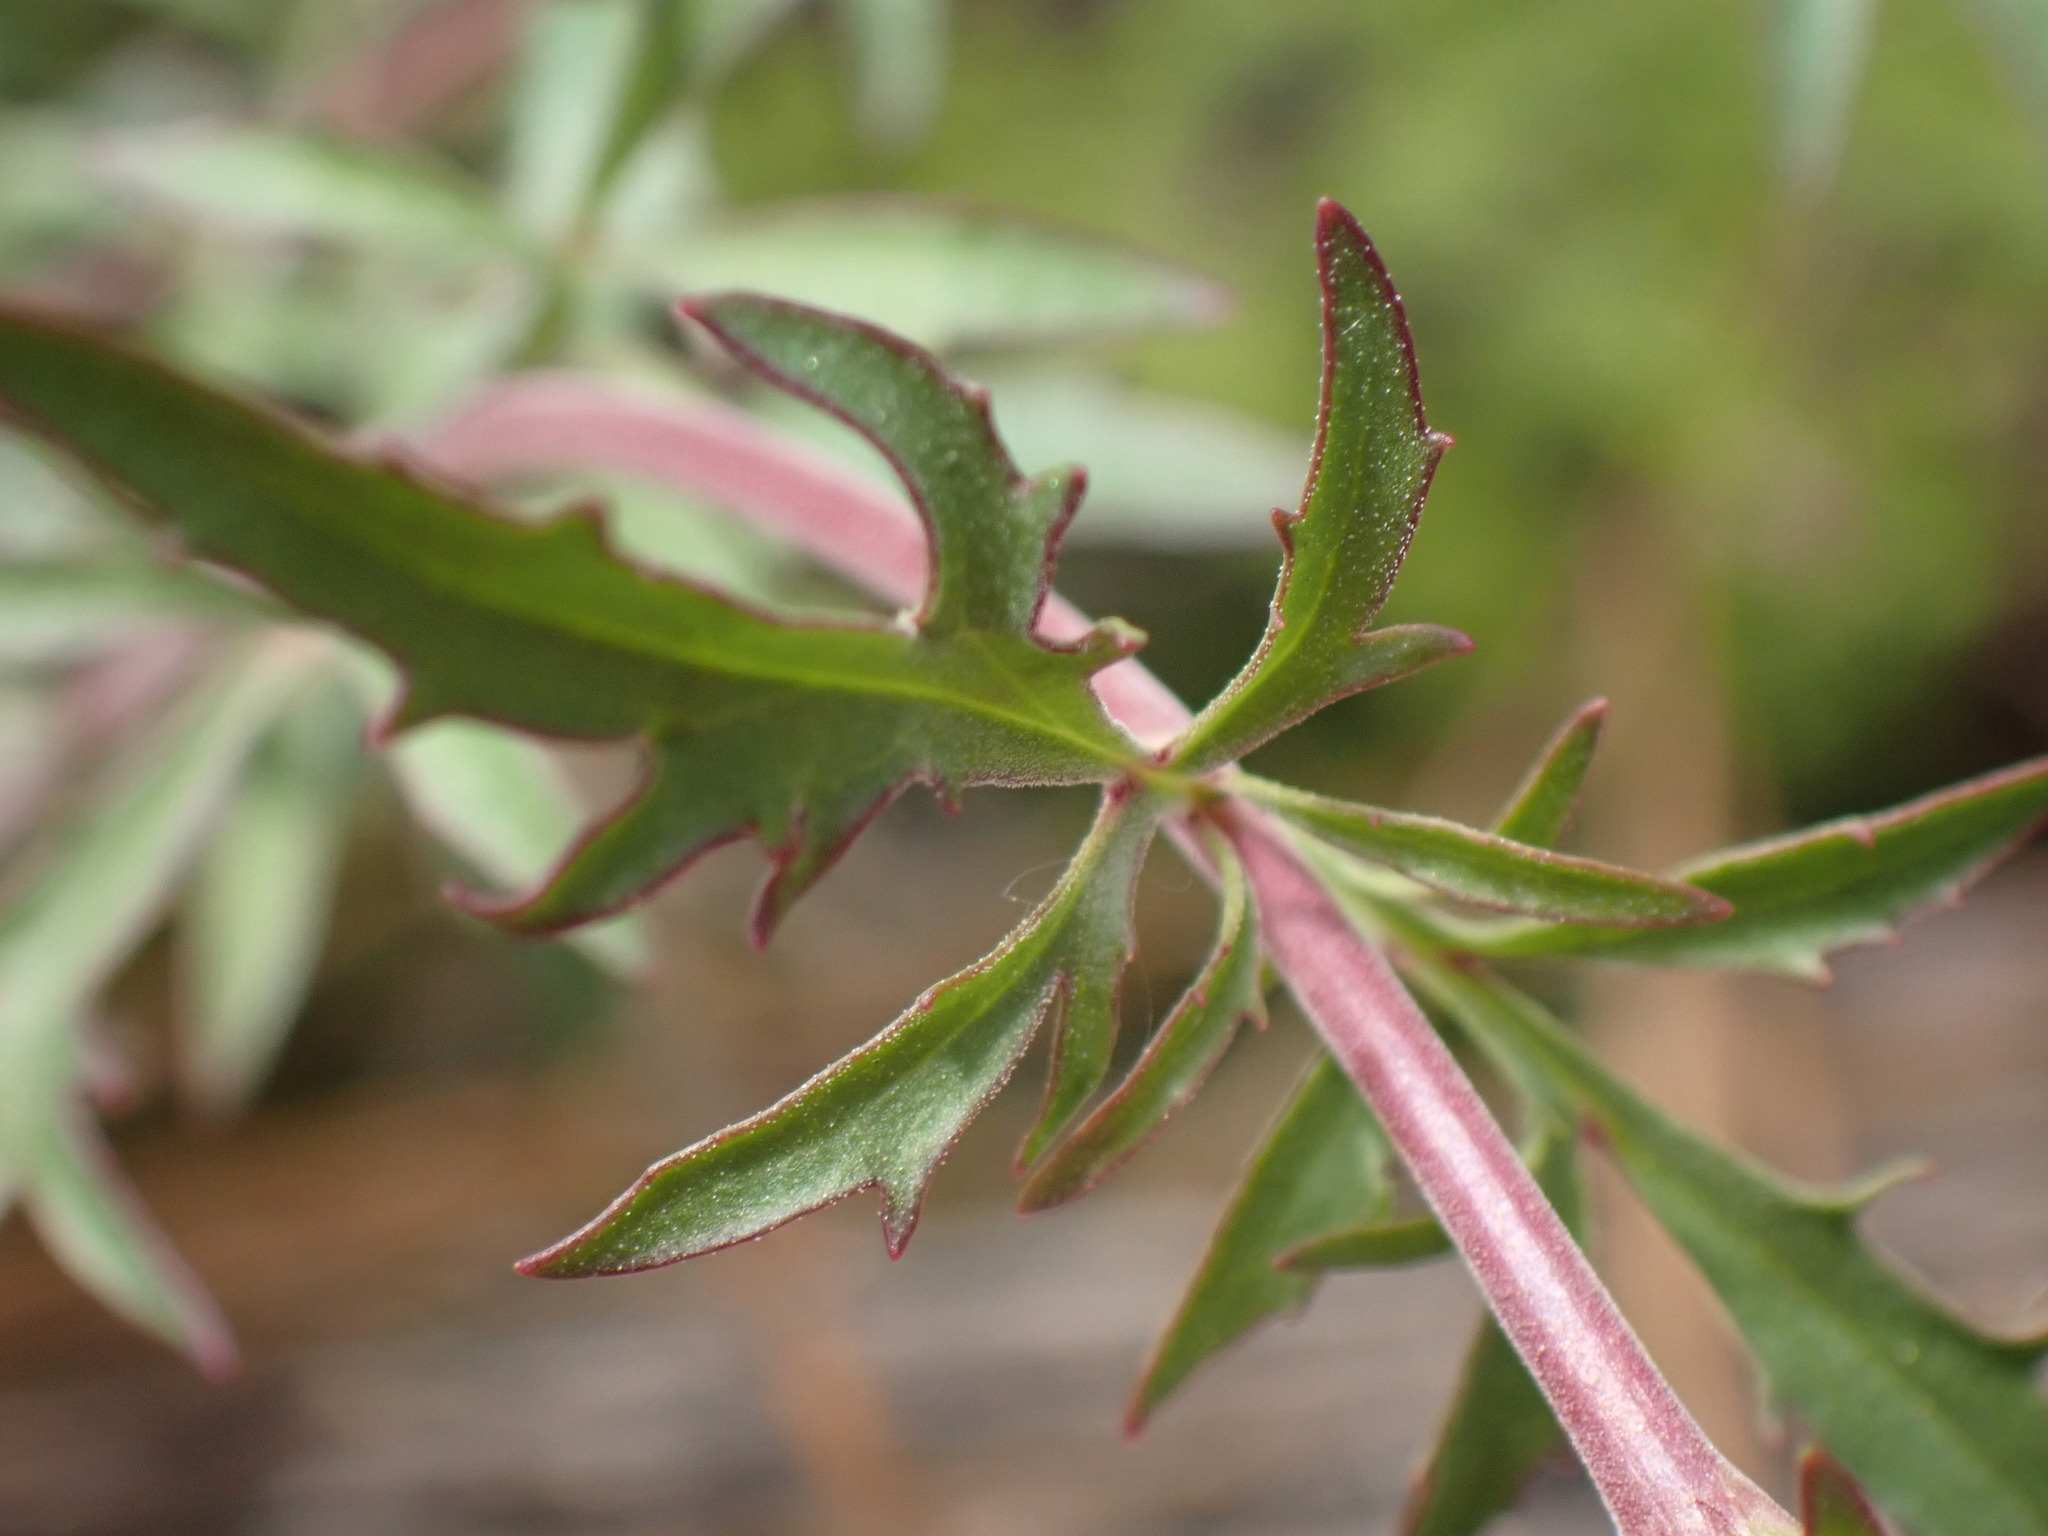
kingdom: Plantae
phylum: Tracheophyta
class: Magnoliopsida
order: Lamiales
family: Plantaginaceae
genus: Penstemon
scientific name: Penstemon richardsonii
